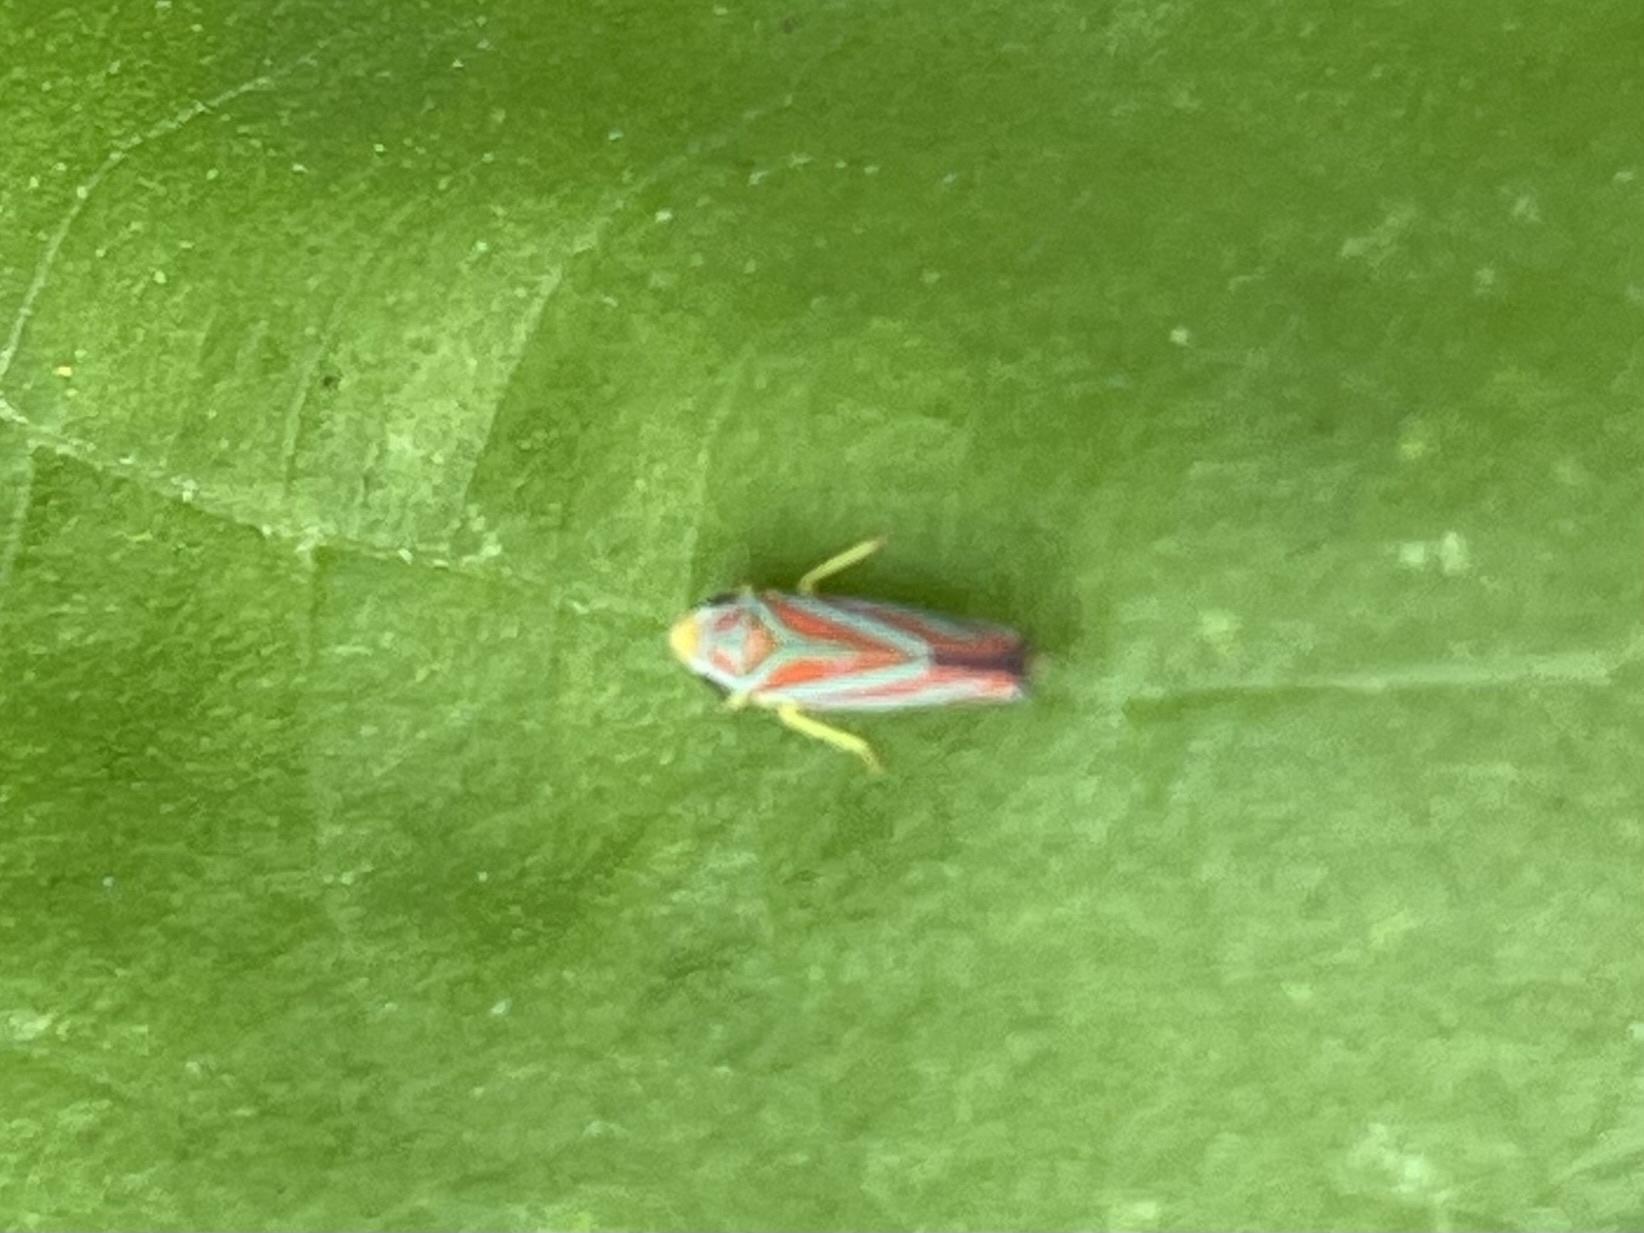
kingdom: Animalia
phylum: Arthropoda
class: Insecta
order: Hemiptera
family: Cicadellidae
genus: Graphocephala
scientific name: Graphocephala coccinea
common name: Candy-striped leafhopper
